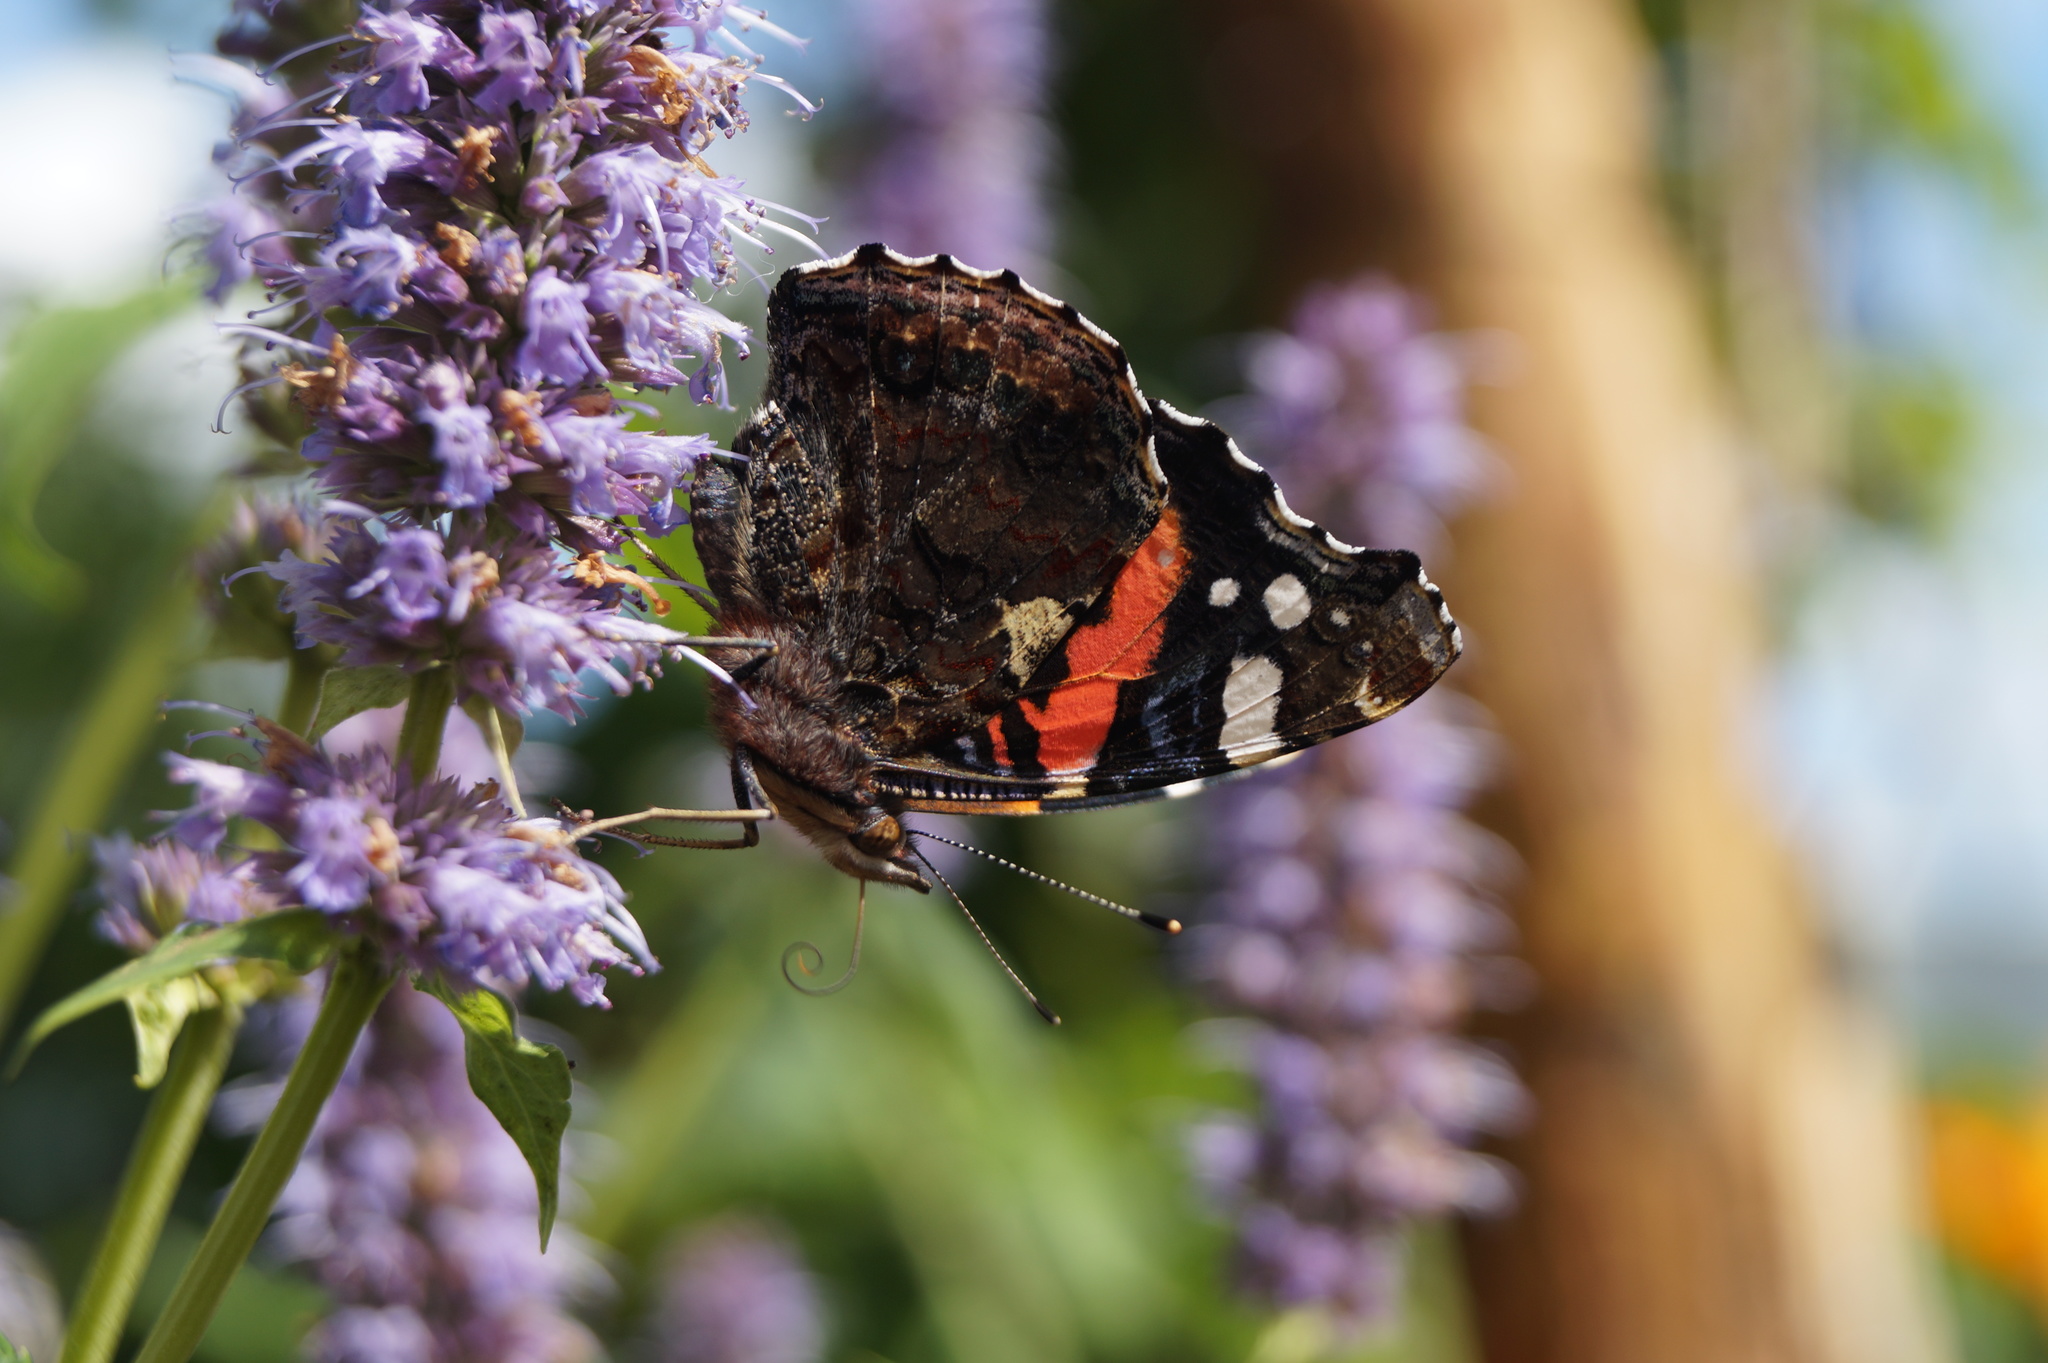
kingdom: Animalia
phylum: Arthropoda
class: Insecta
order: Lepidoptera
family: Nymphalidae
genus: Vanessa
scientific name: Vanessa atalanta
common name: Red admiral
